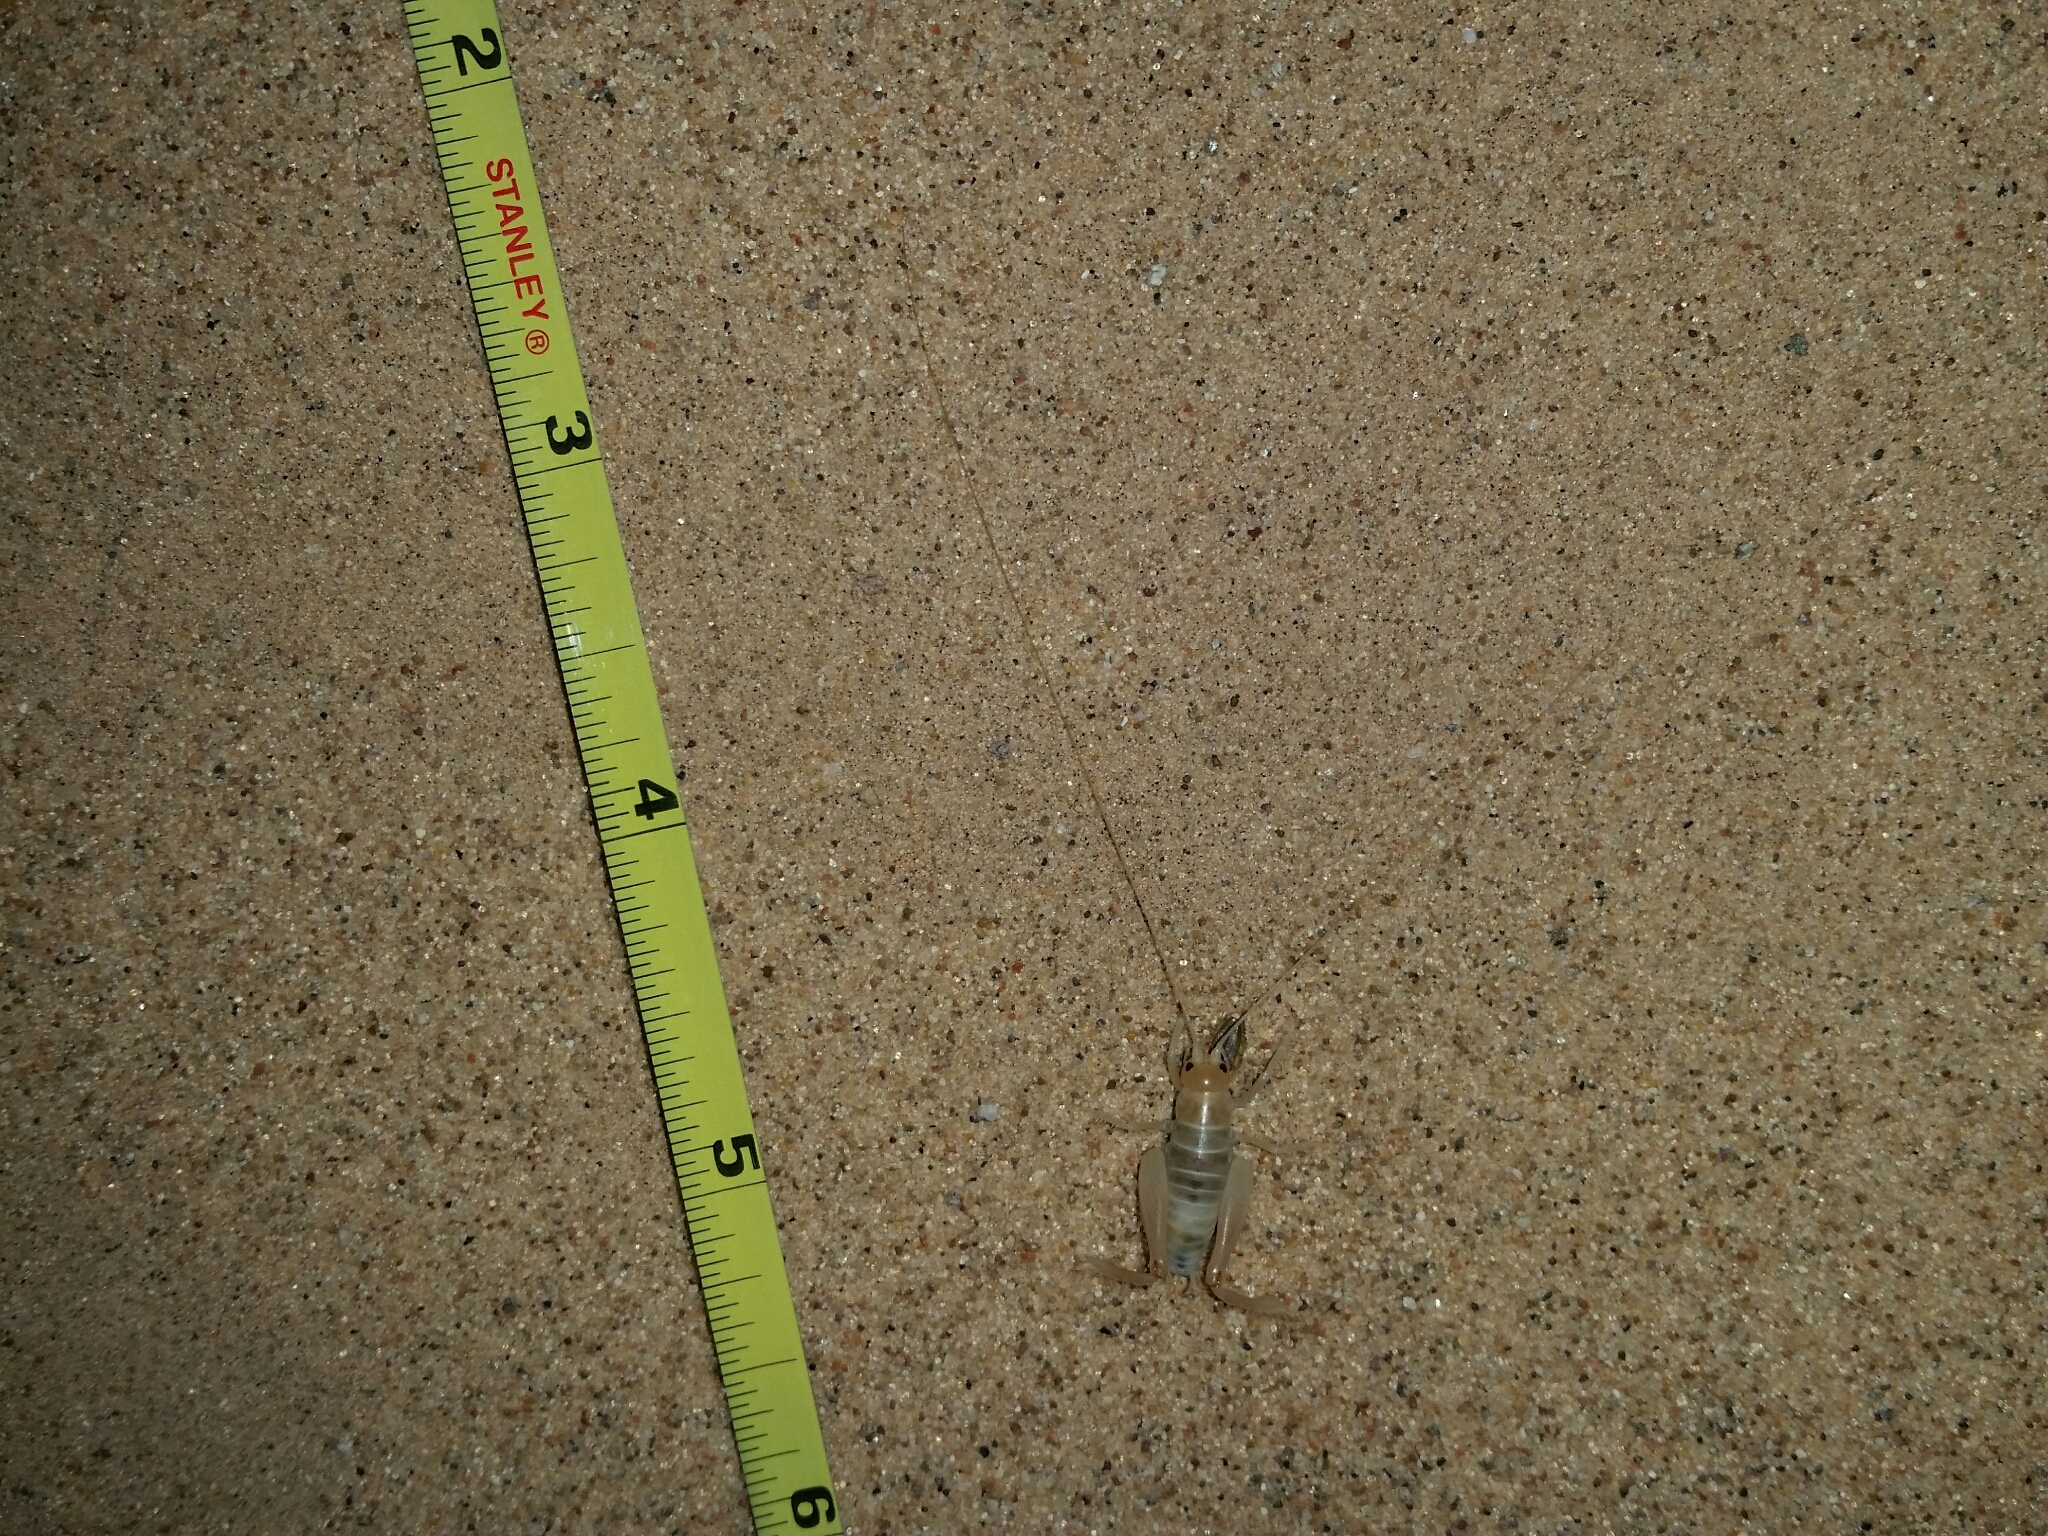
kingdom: Animalia
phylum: Arthropoda
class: Insecta
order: Orthoptera
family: Rhaphidophoridae
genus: Macrobaenetes
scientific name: Macrobaenetes algodonensis
